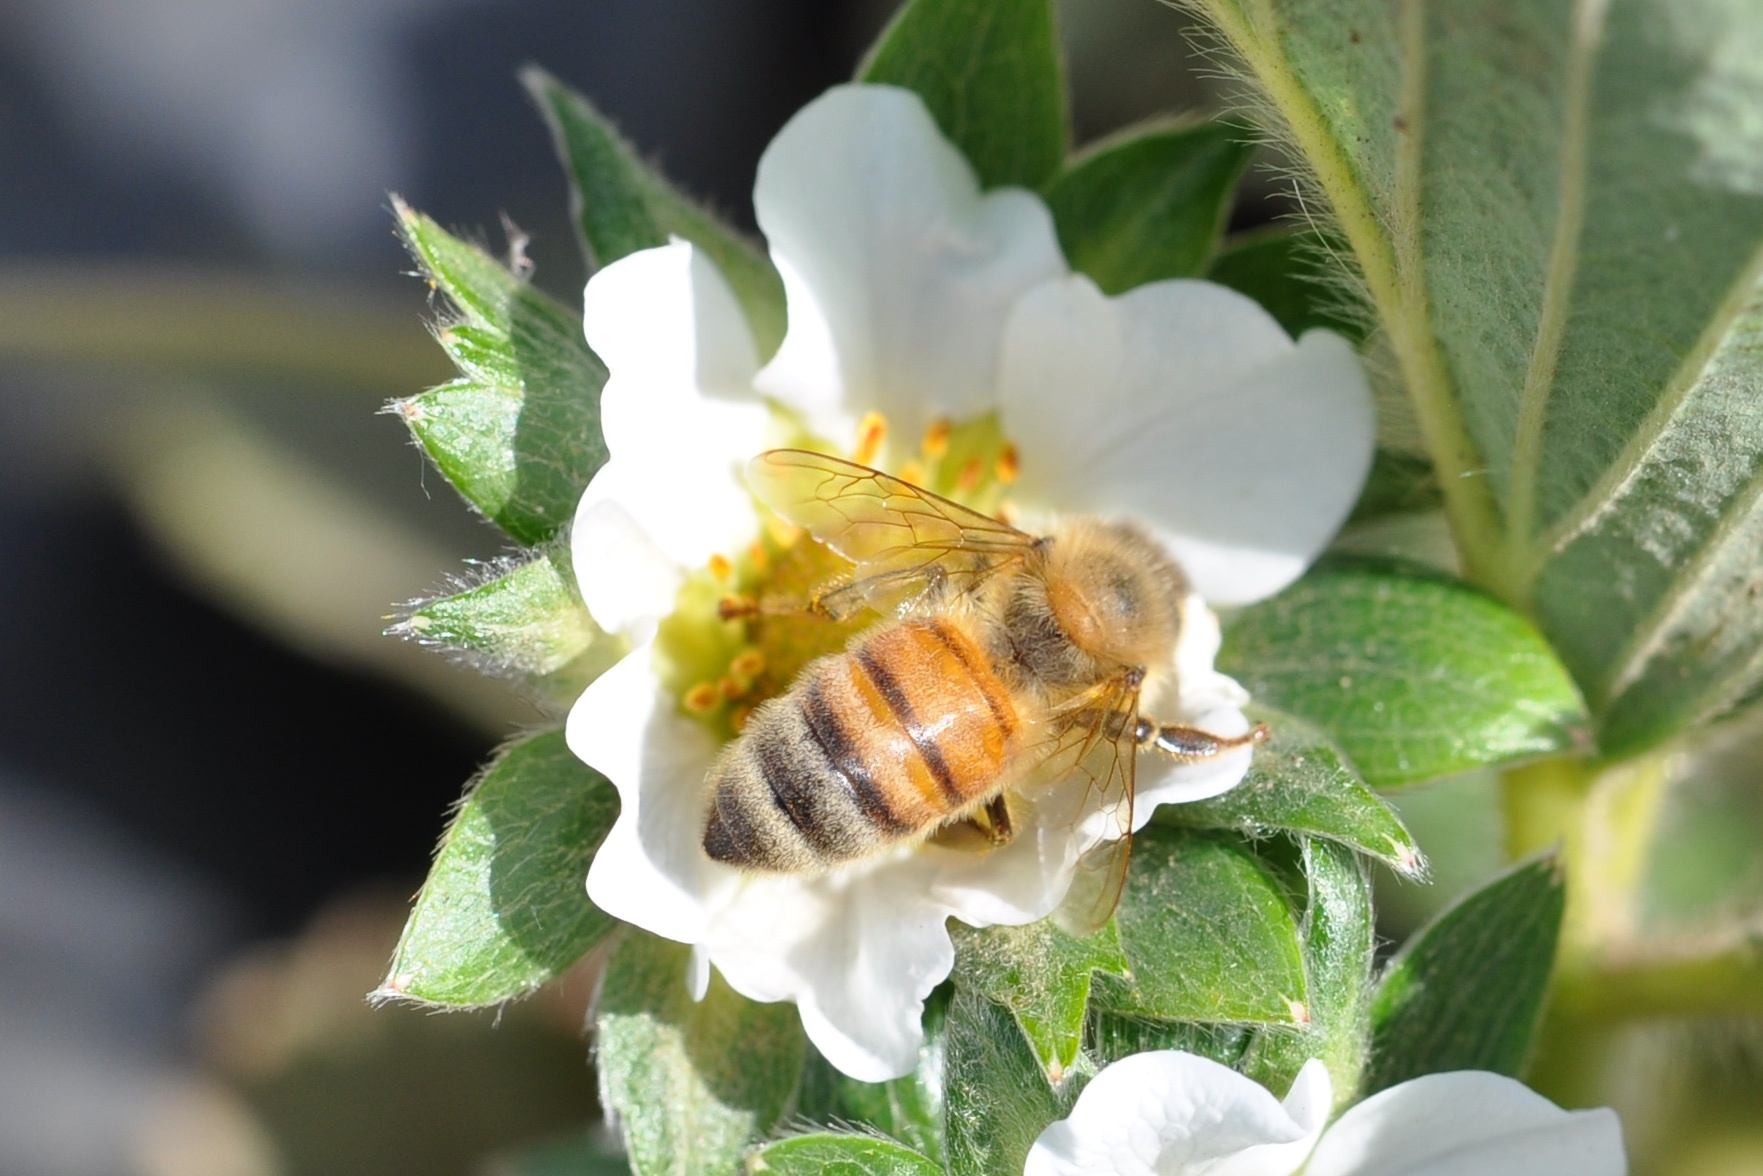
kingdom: Animalia
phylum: Arthropoda
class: Insecta
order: Hymenoptera
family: Apidae
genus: Apis
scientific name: Apis mellifera
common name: Honey bee
